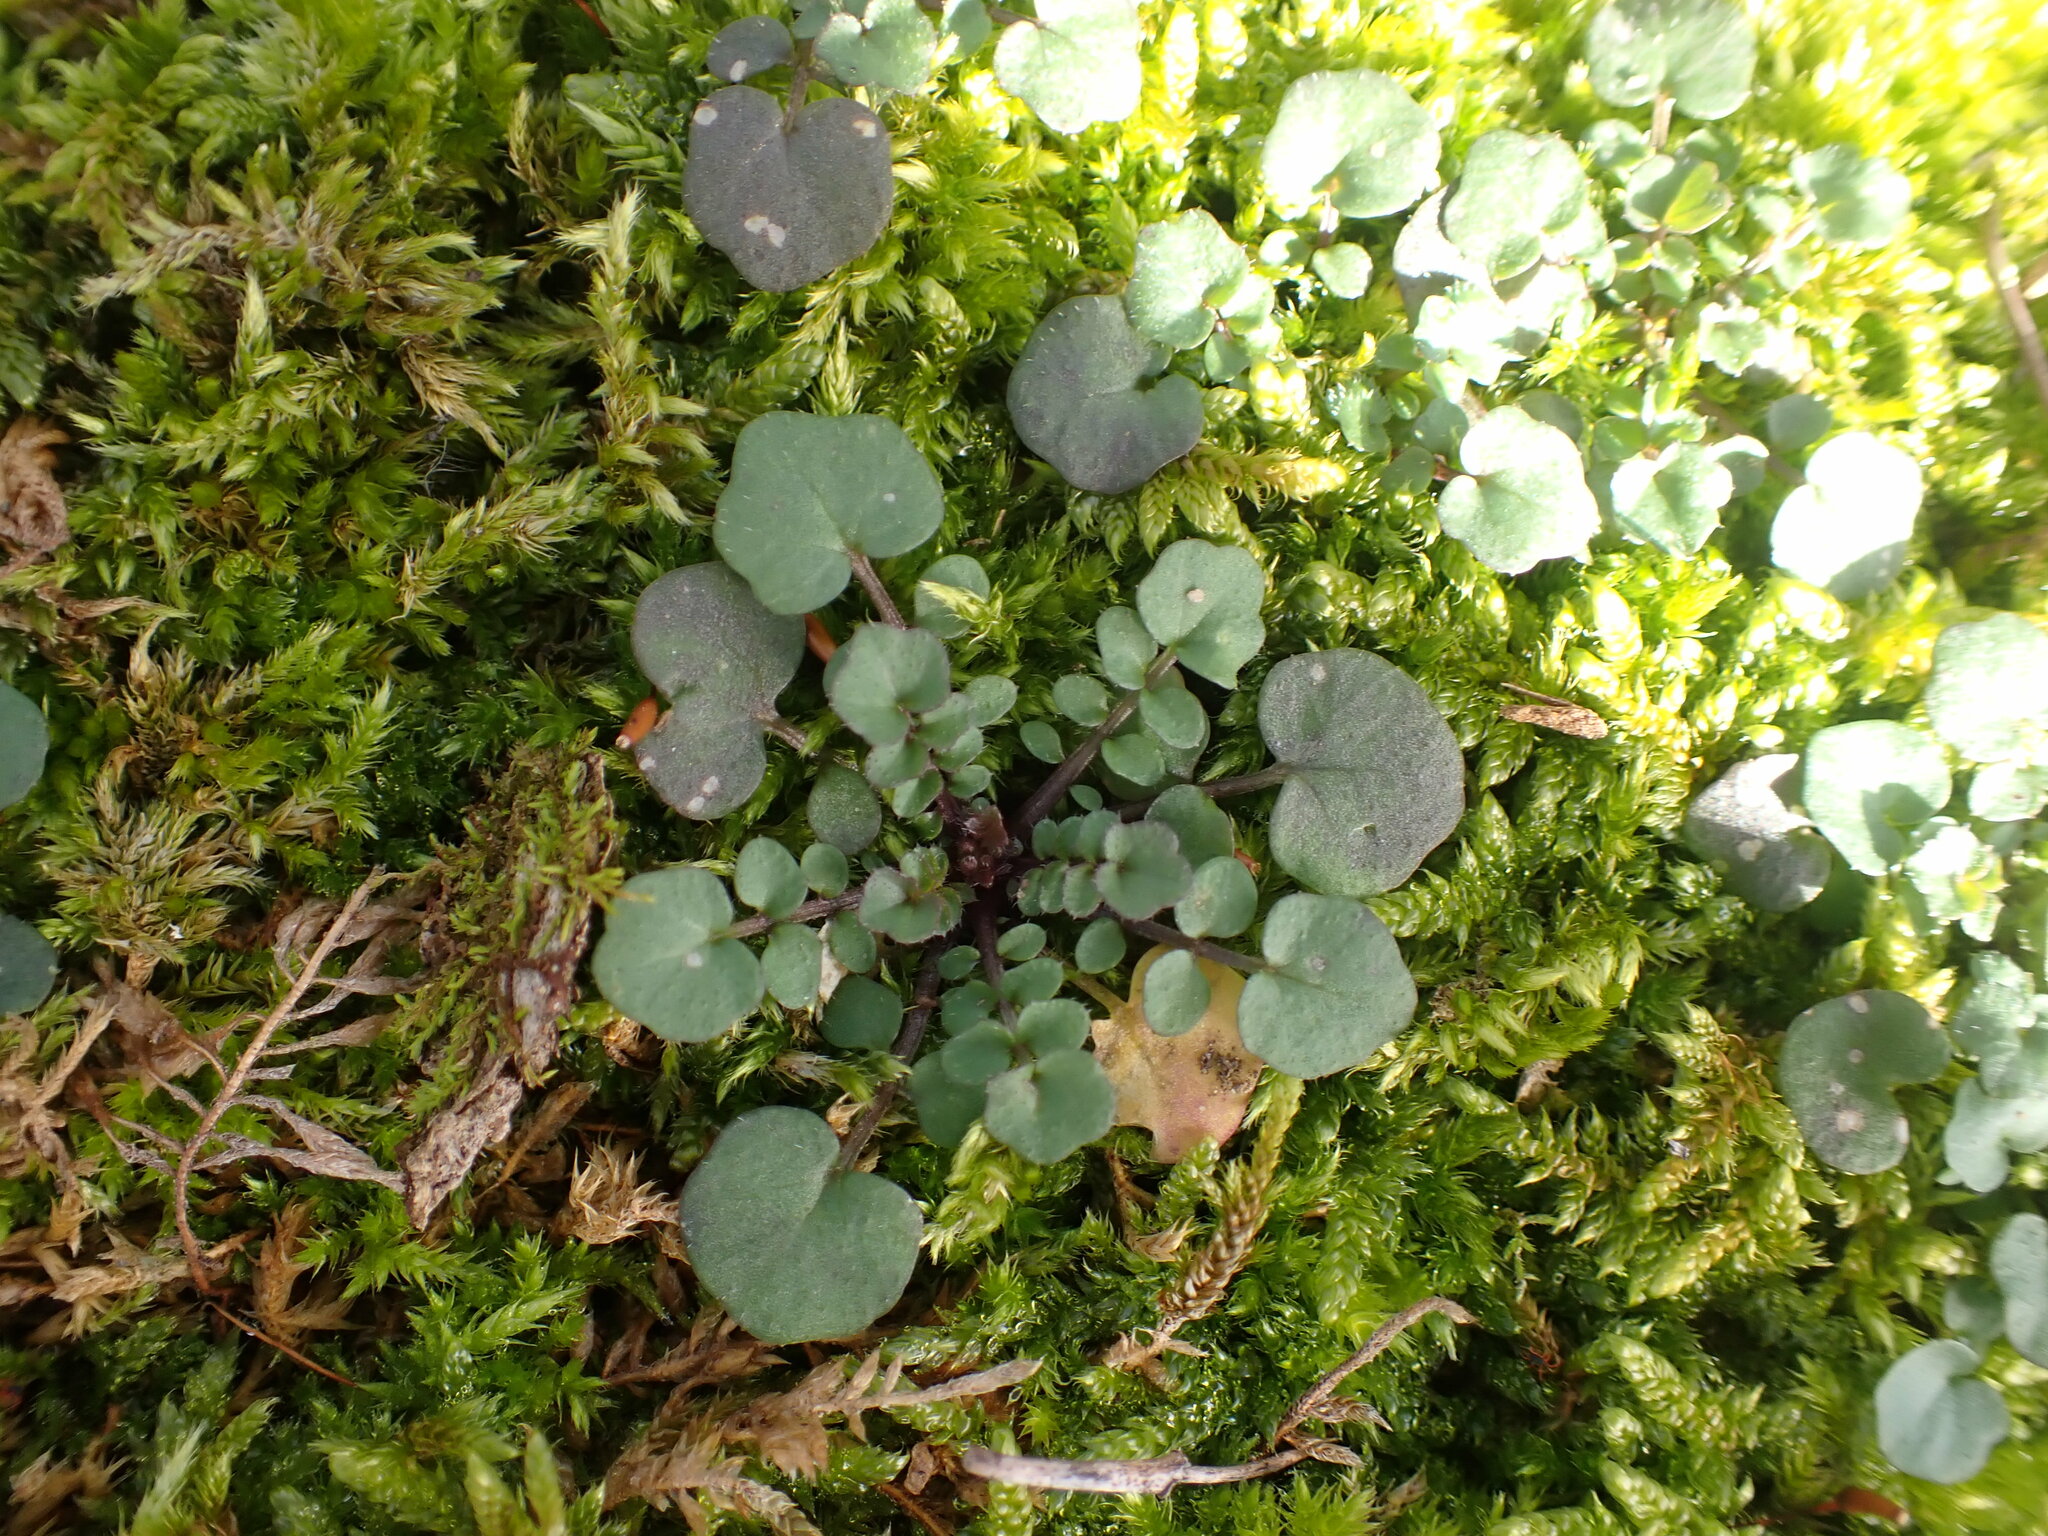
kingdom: Plantae
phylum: Tracheophyta
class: Magnoliopsida
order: Brassicales
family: Brassicaceae
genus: Cardamine
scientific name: Cardamine hirsuta
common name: Hairy bittercress
